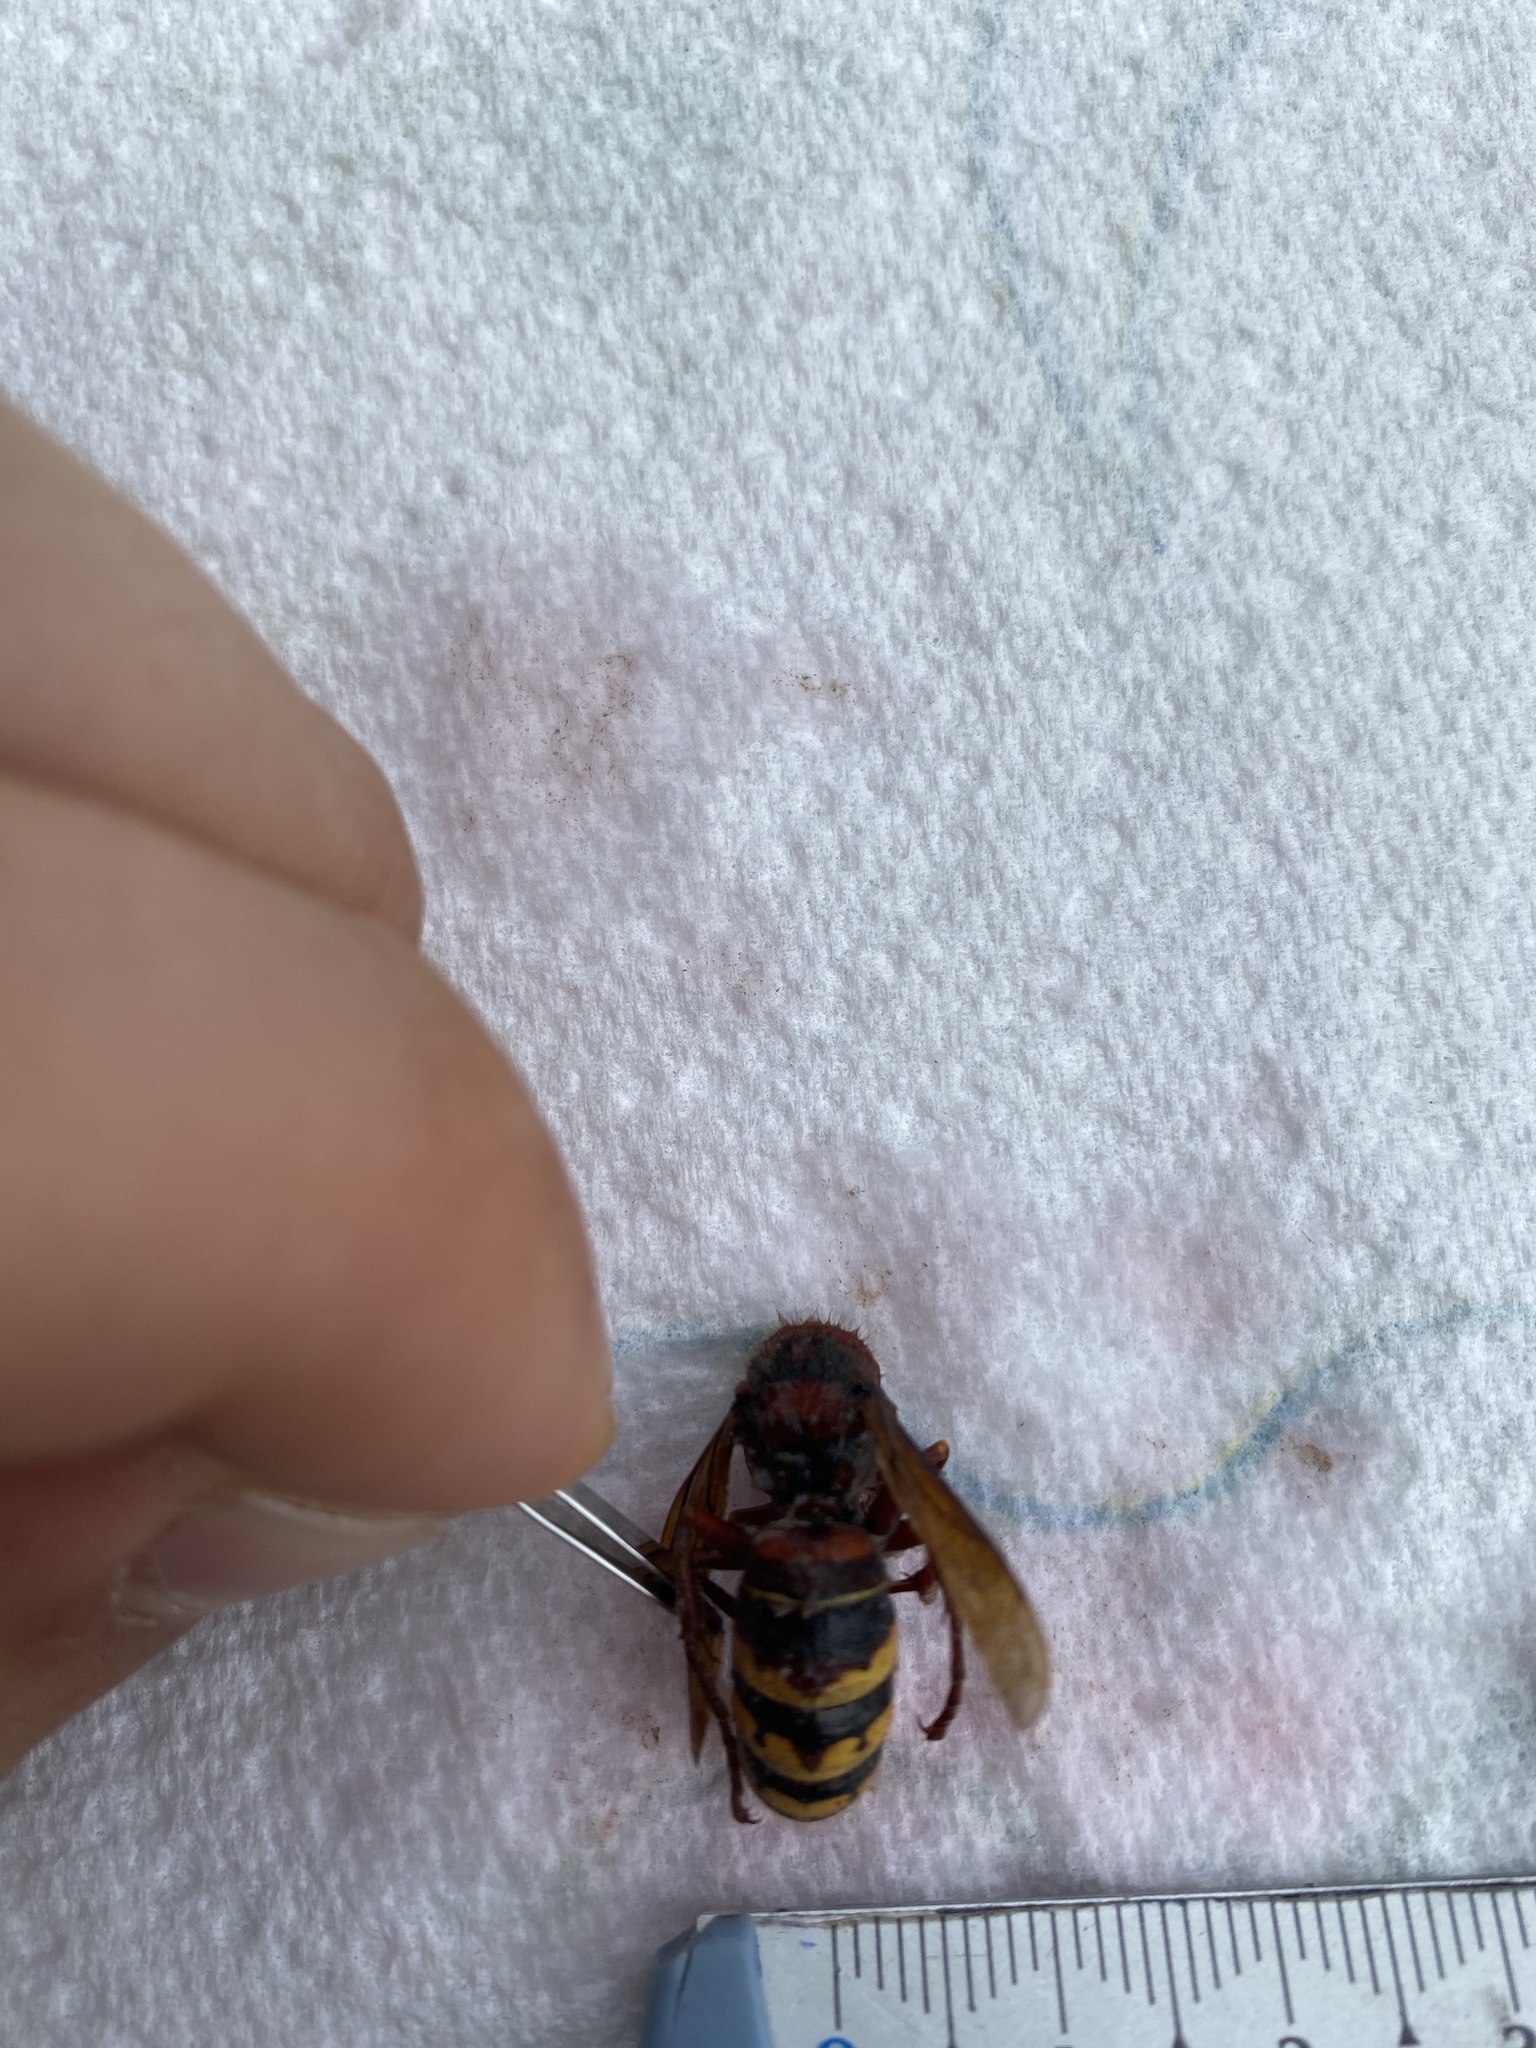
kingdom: Animalia
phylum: Arthropoda
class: Insecta
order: Hymenoptera
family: Vespidae
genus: Vespa
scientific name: Vespa crabro
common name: Hornet
